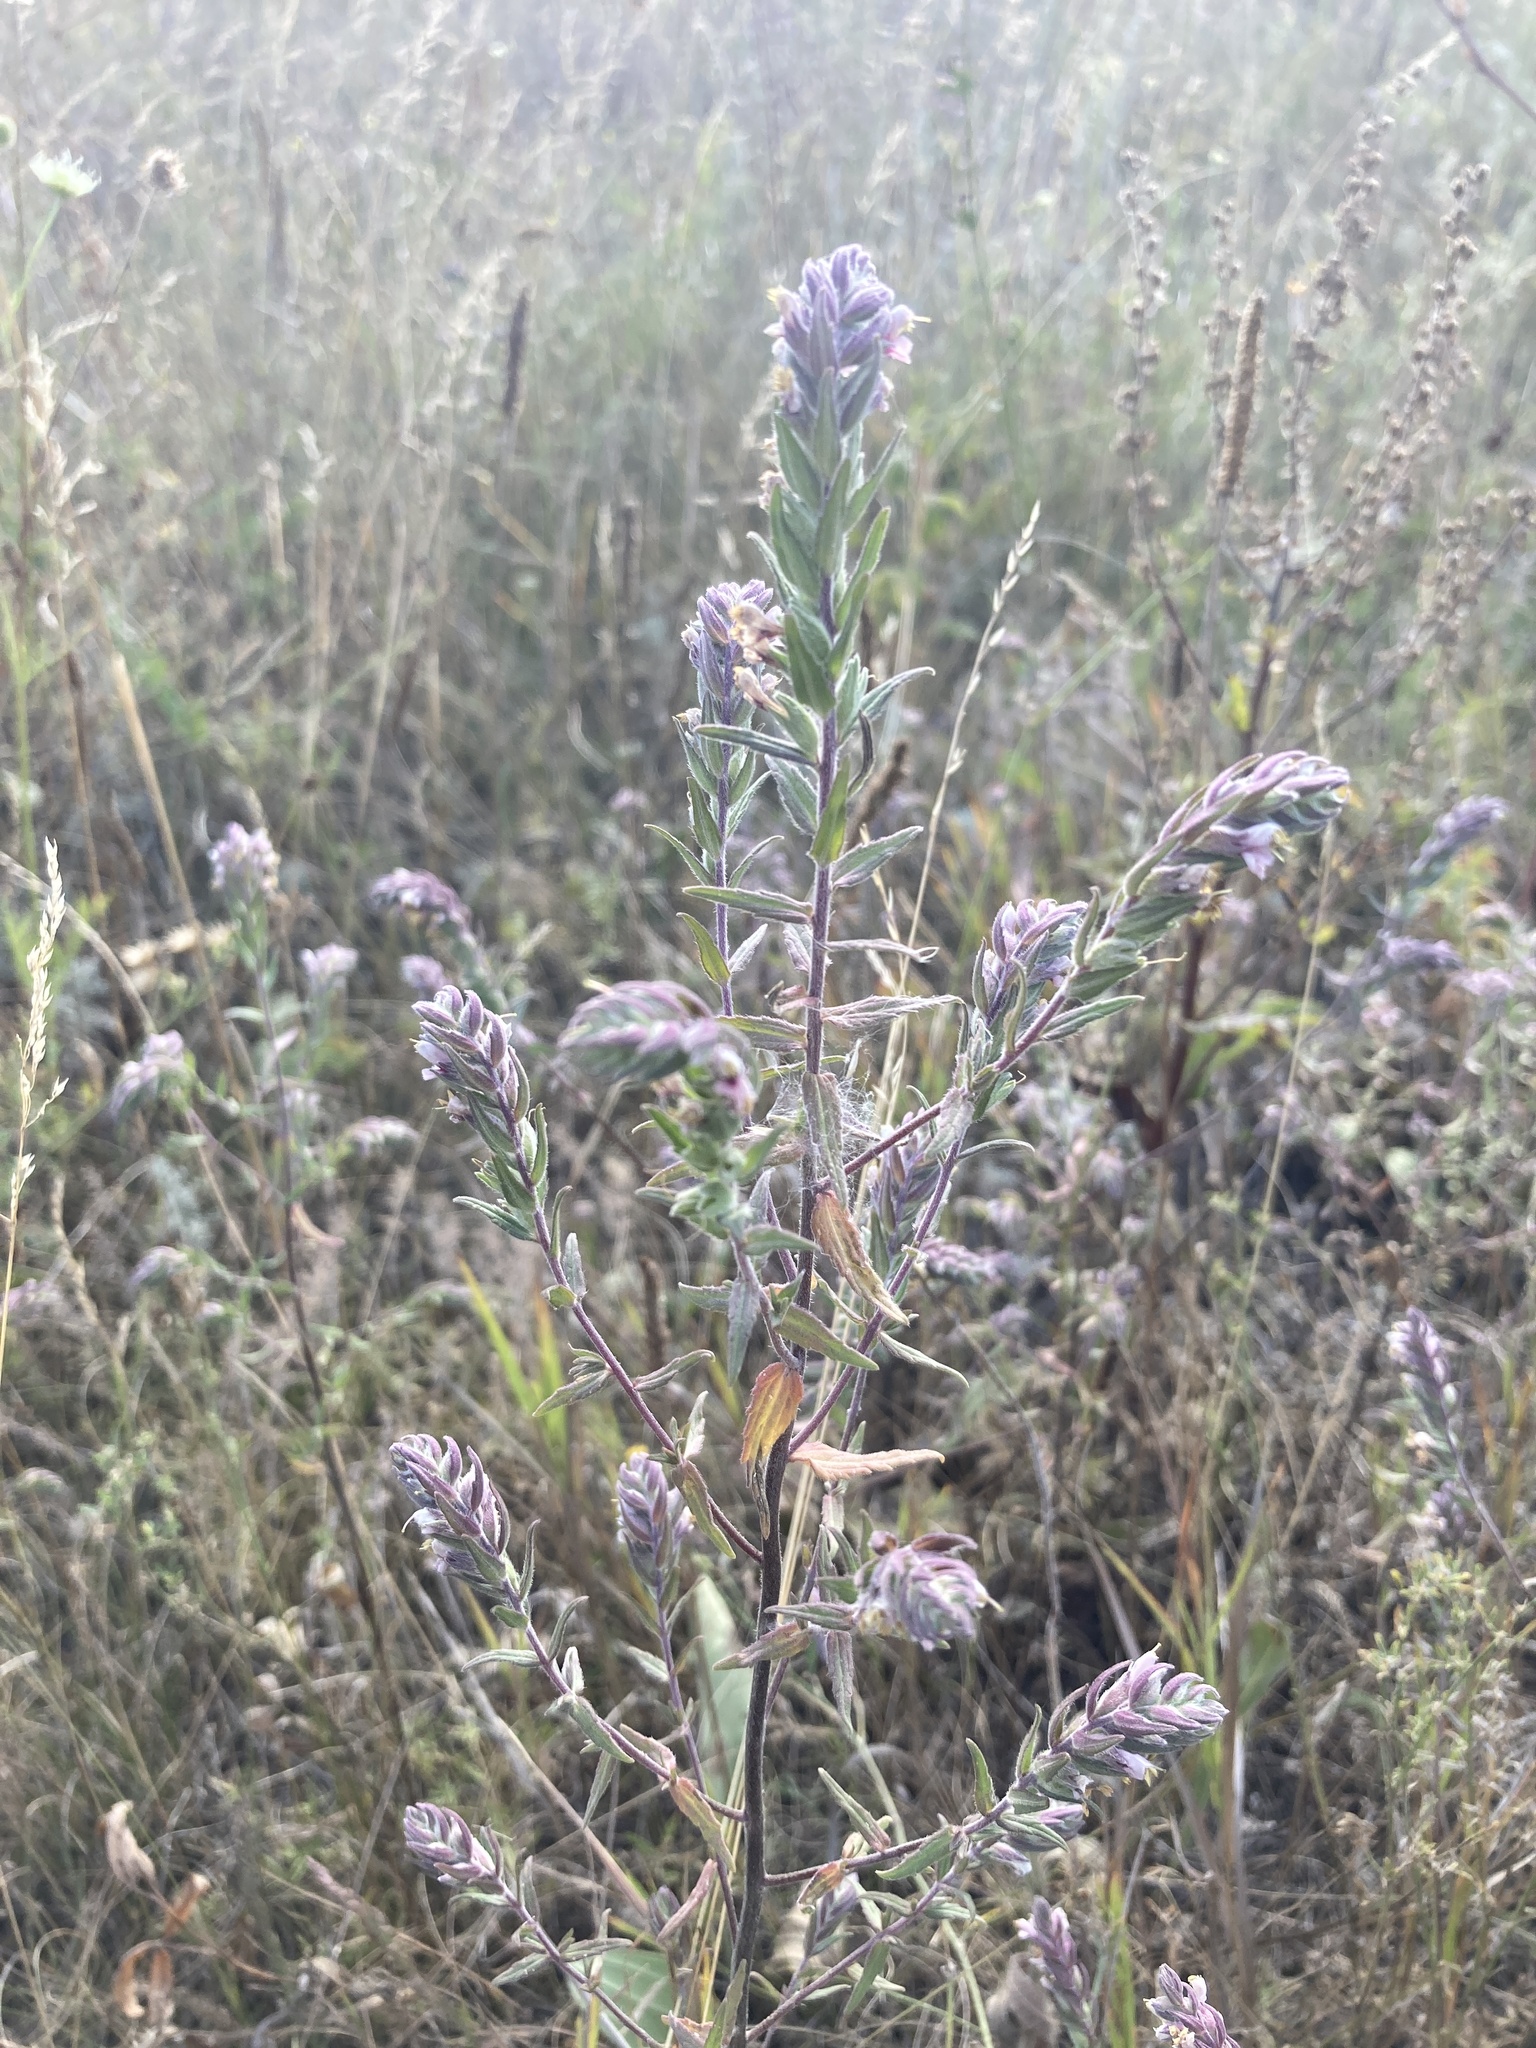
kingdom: Plantae
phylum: Tracheophyta
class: Magnoliopsida
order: Lamiales
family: Orobanchaceae
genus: Odontites
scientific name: Odontites vulgaris
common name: Broomrape
